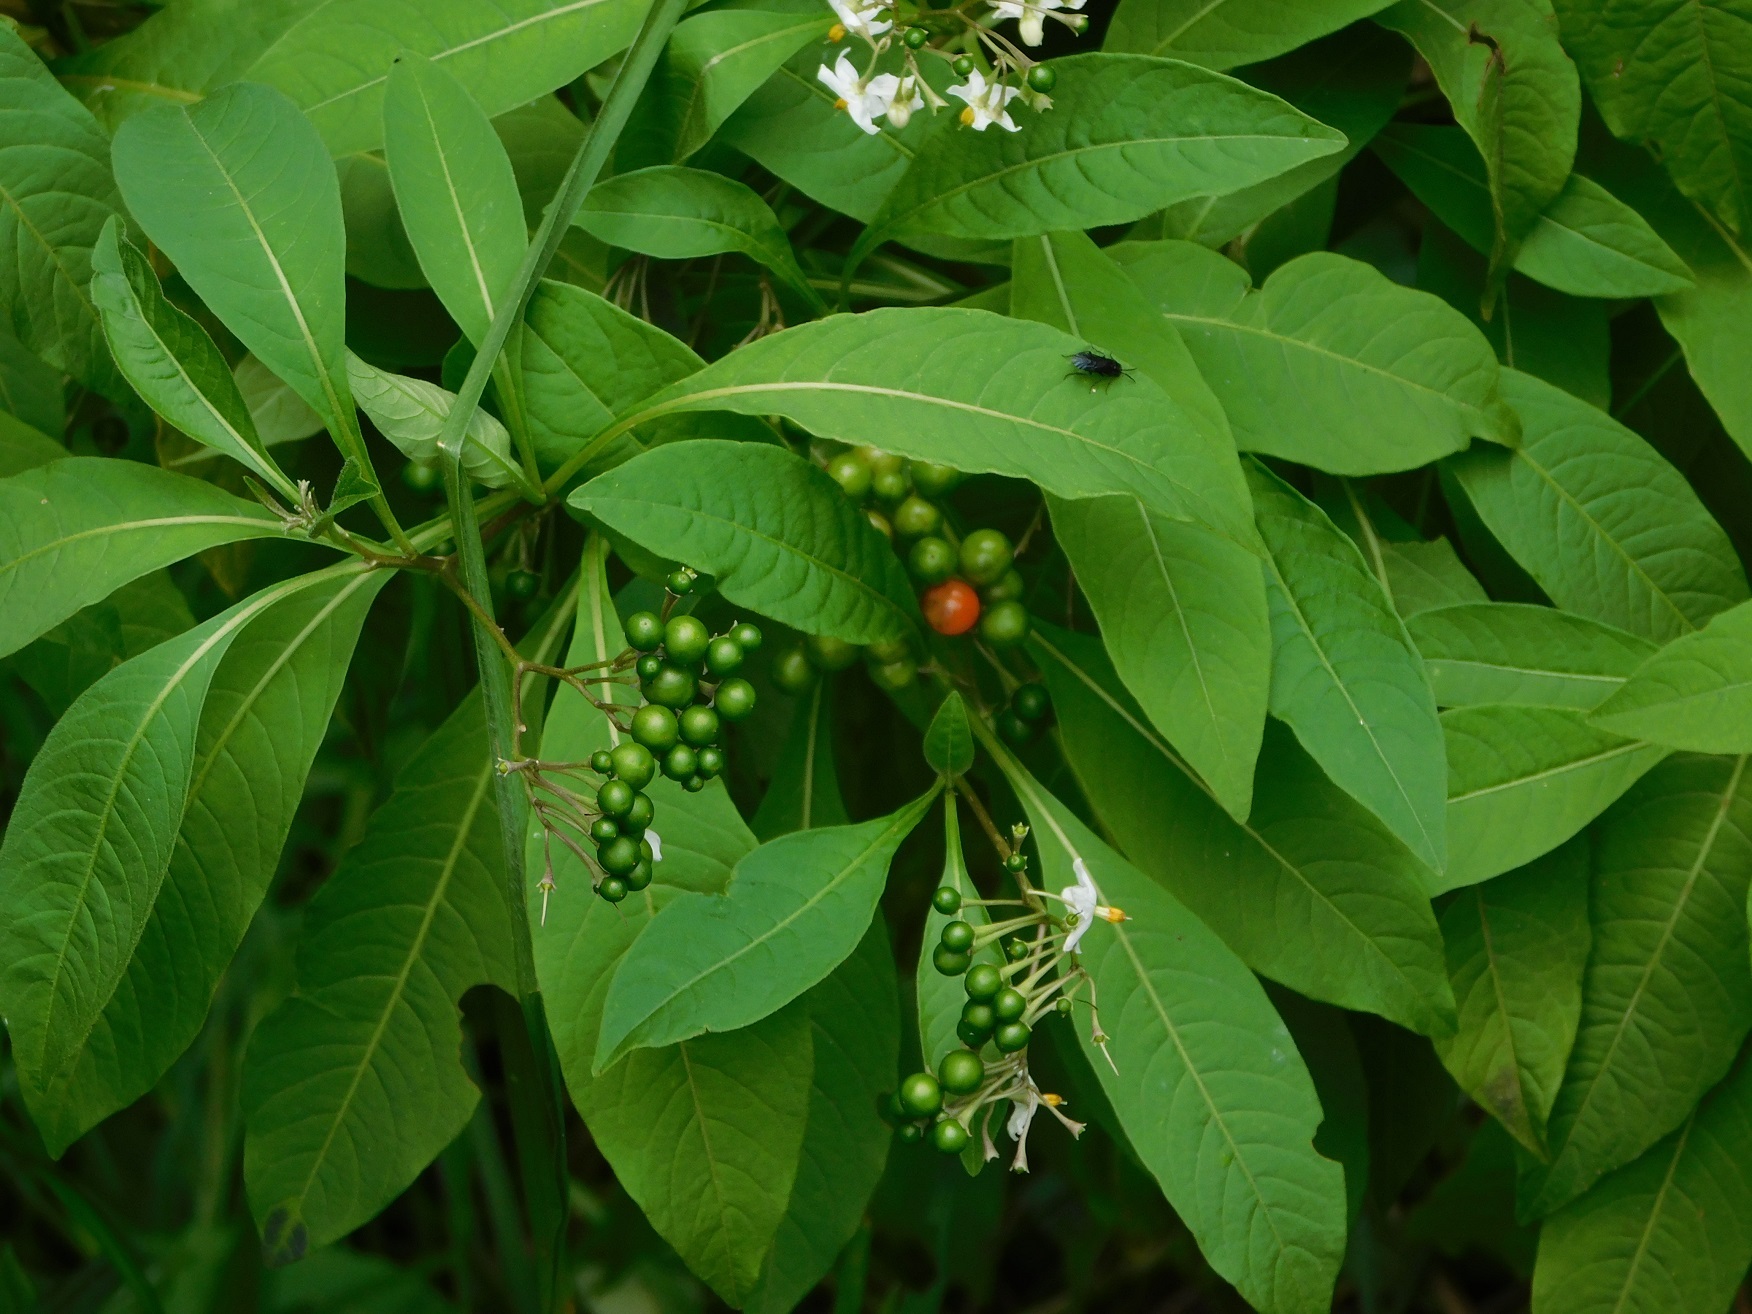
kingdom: Plantae
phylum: Tracheophyta
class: Magnoliopsida
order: Solanales
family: Solanaceae
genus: Solanum
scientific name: Solanum pubigerum
